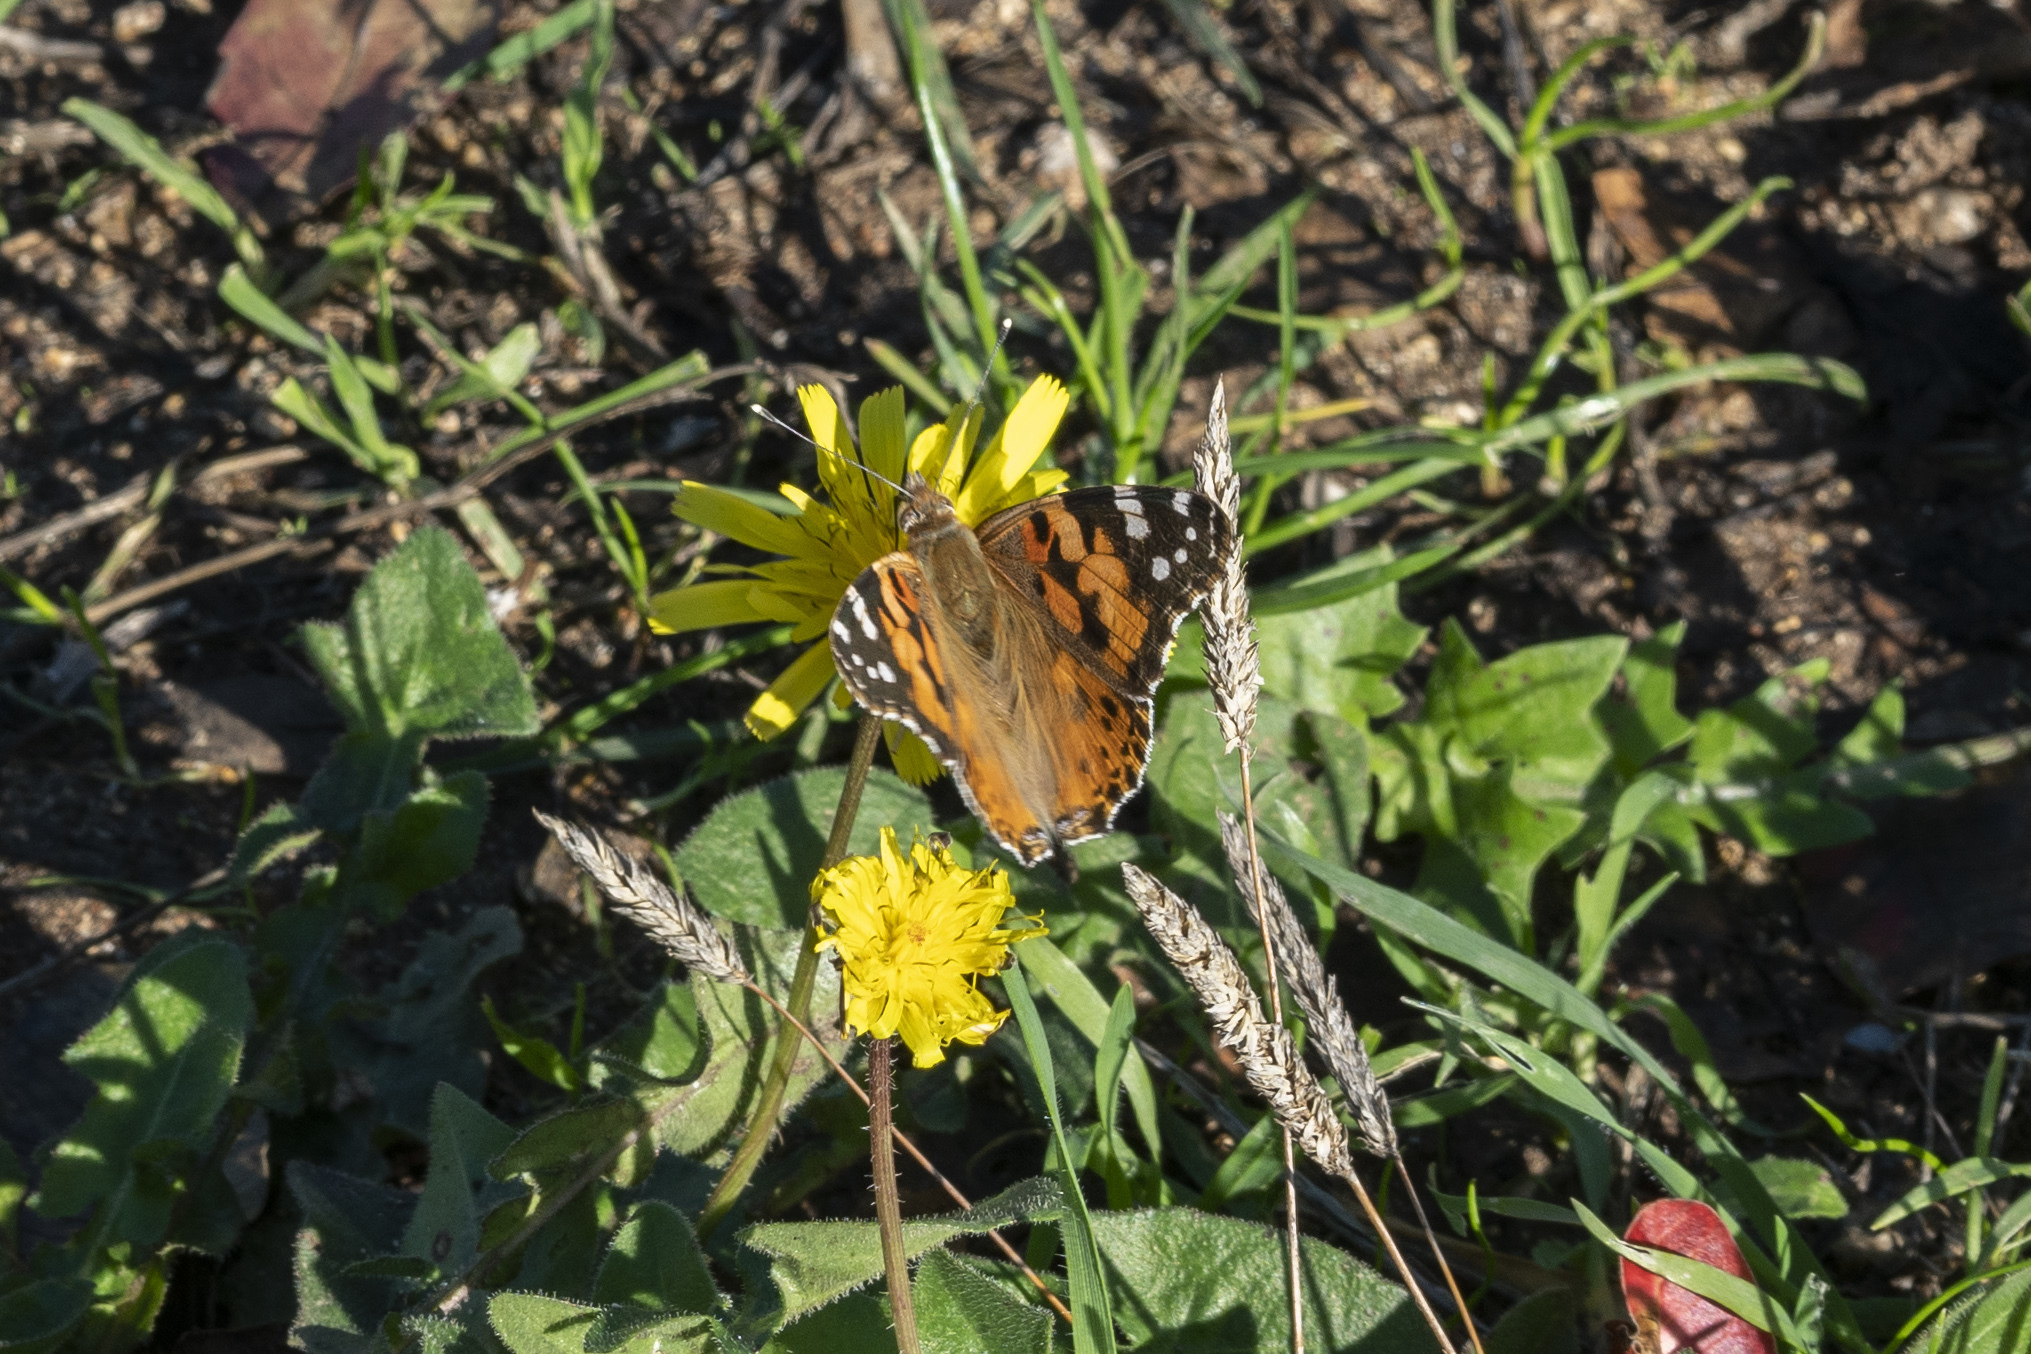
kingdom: Animalia
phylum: Arthropoda
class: Insecta
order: Lepidoptera
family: Nymphalidae
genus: Vanessa
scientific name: Vanessa cardui
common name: Painted lady
